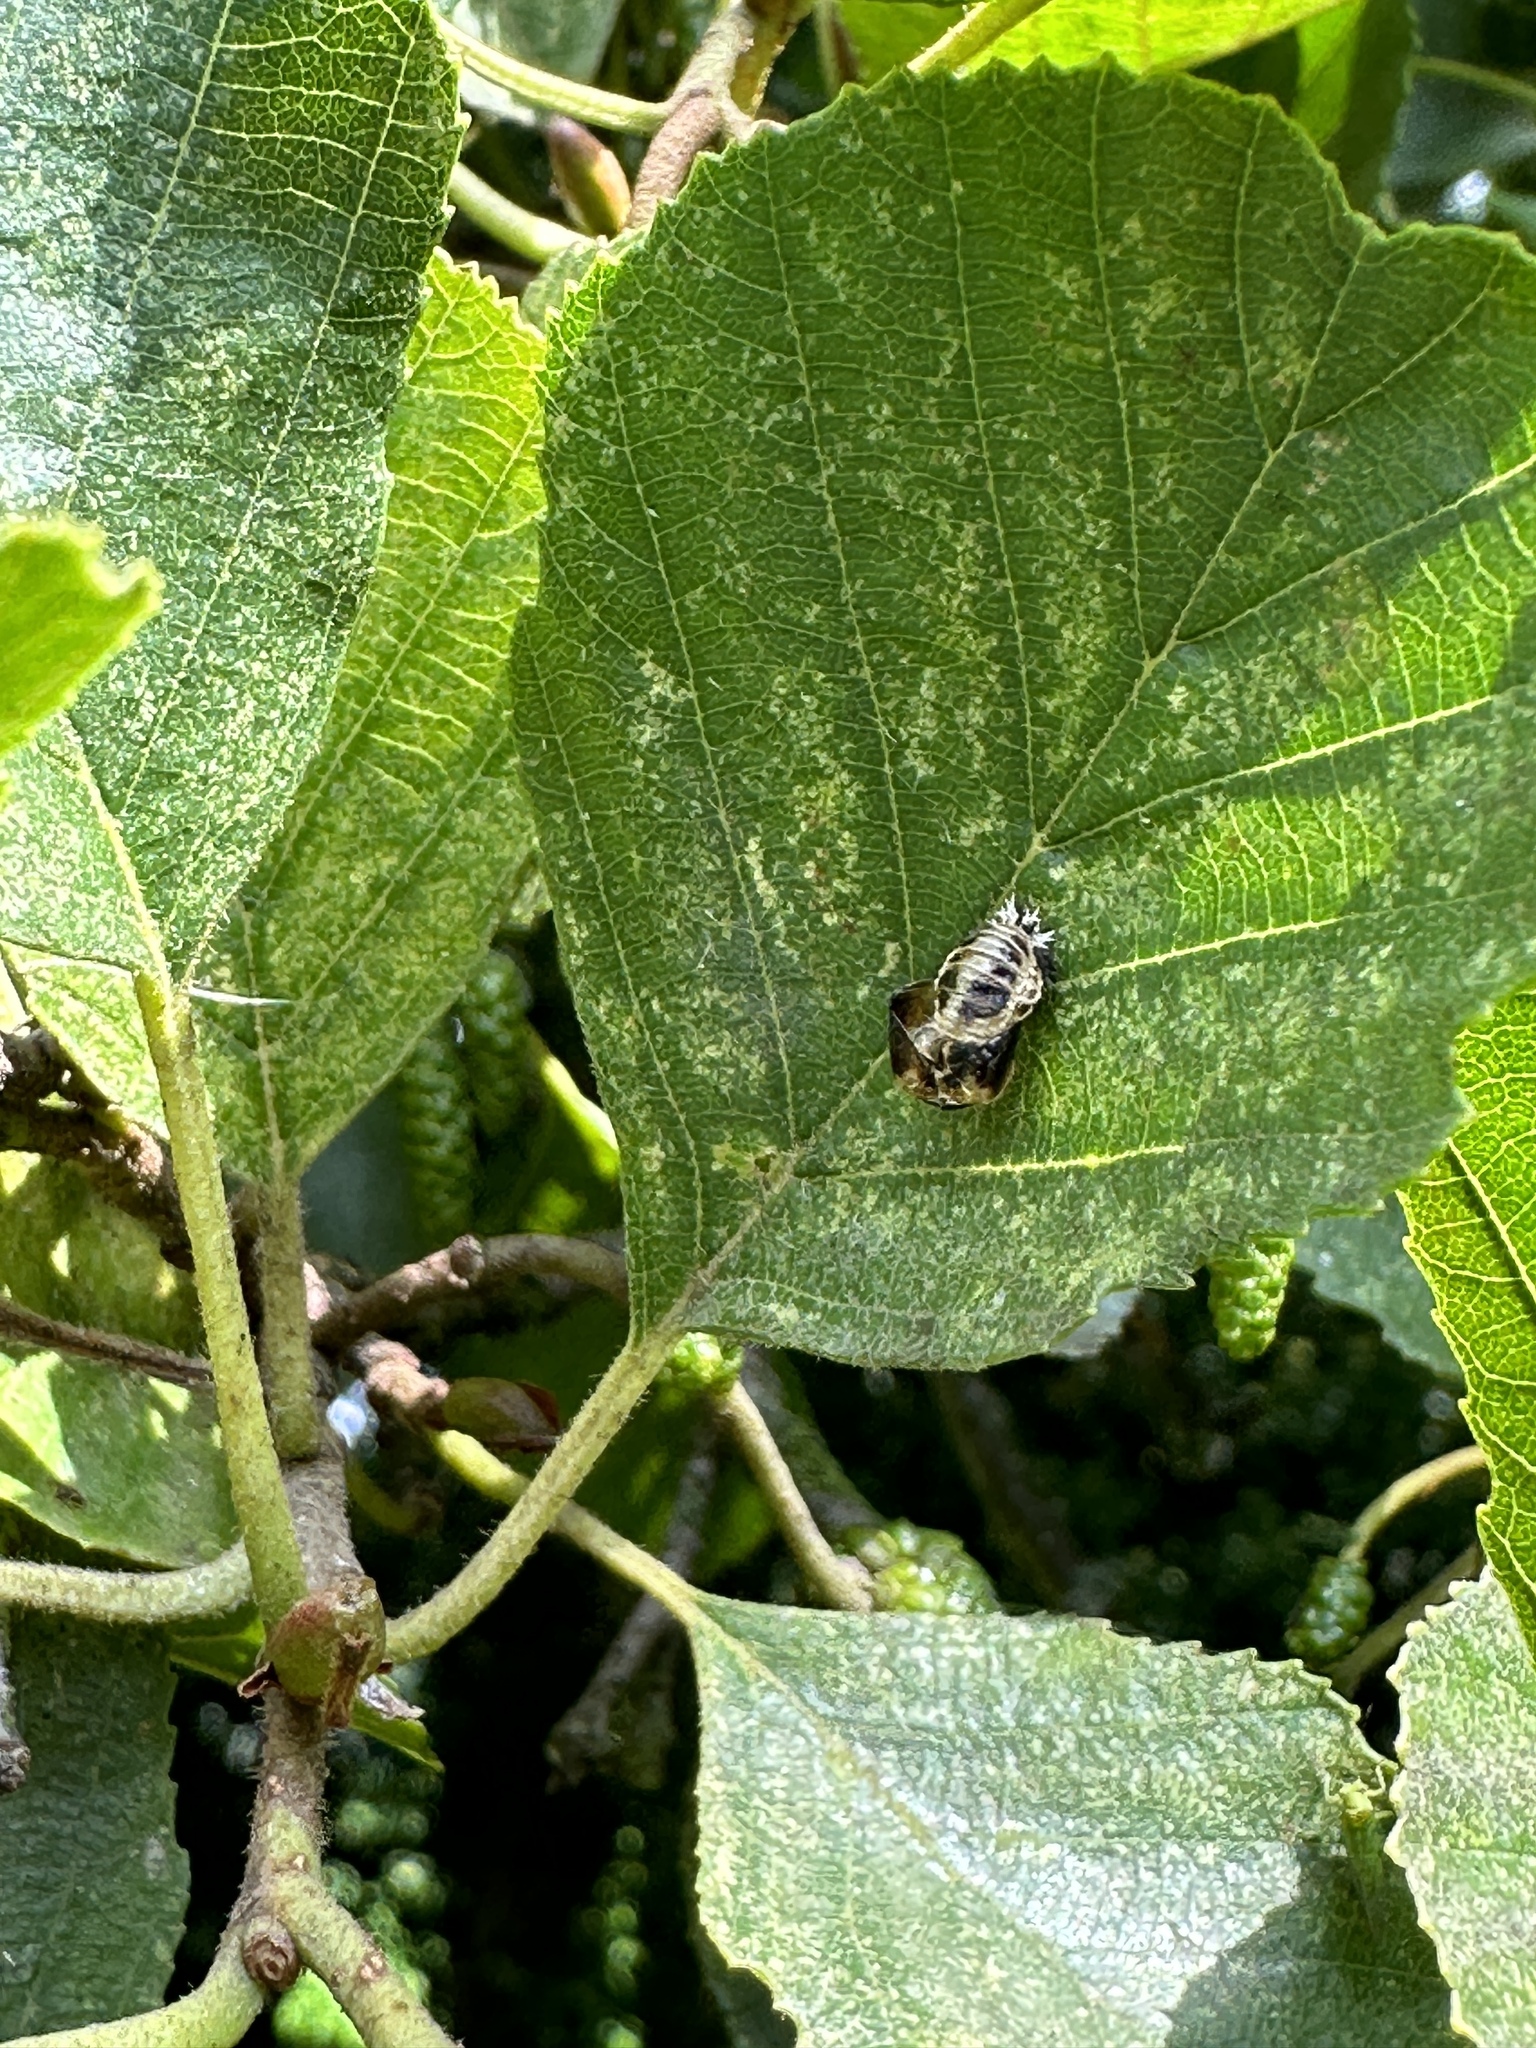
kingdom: Animalia
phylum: Arthropoda
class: Insecta
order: Coleoptera
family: Coccinellidae
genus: Harmonia
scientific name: Harmonia axyridis
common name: Harlequin ladybird
